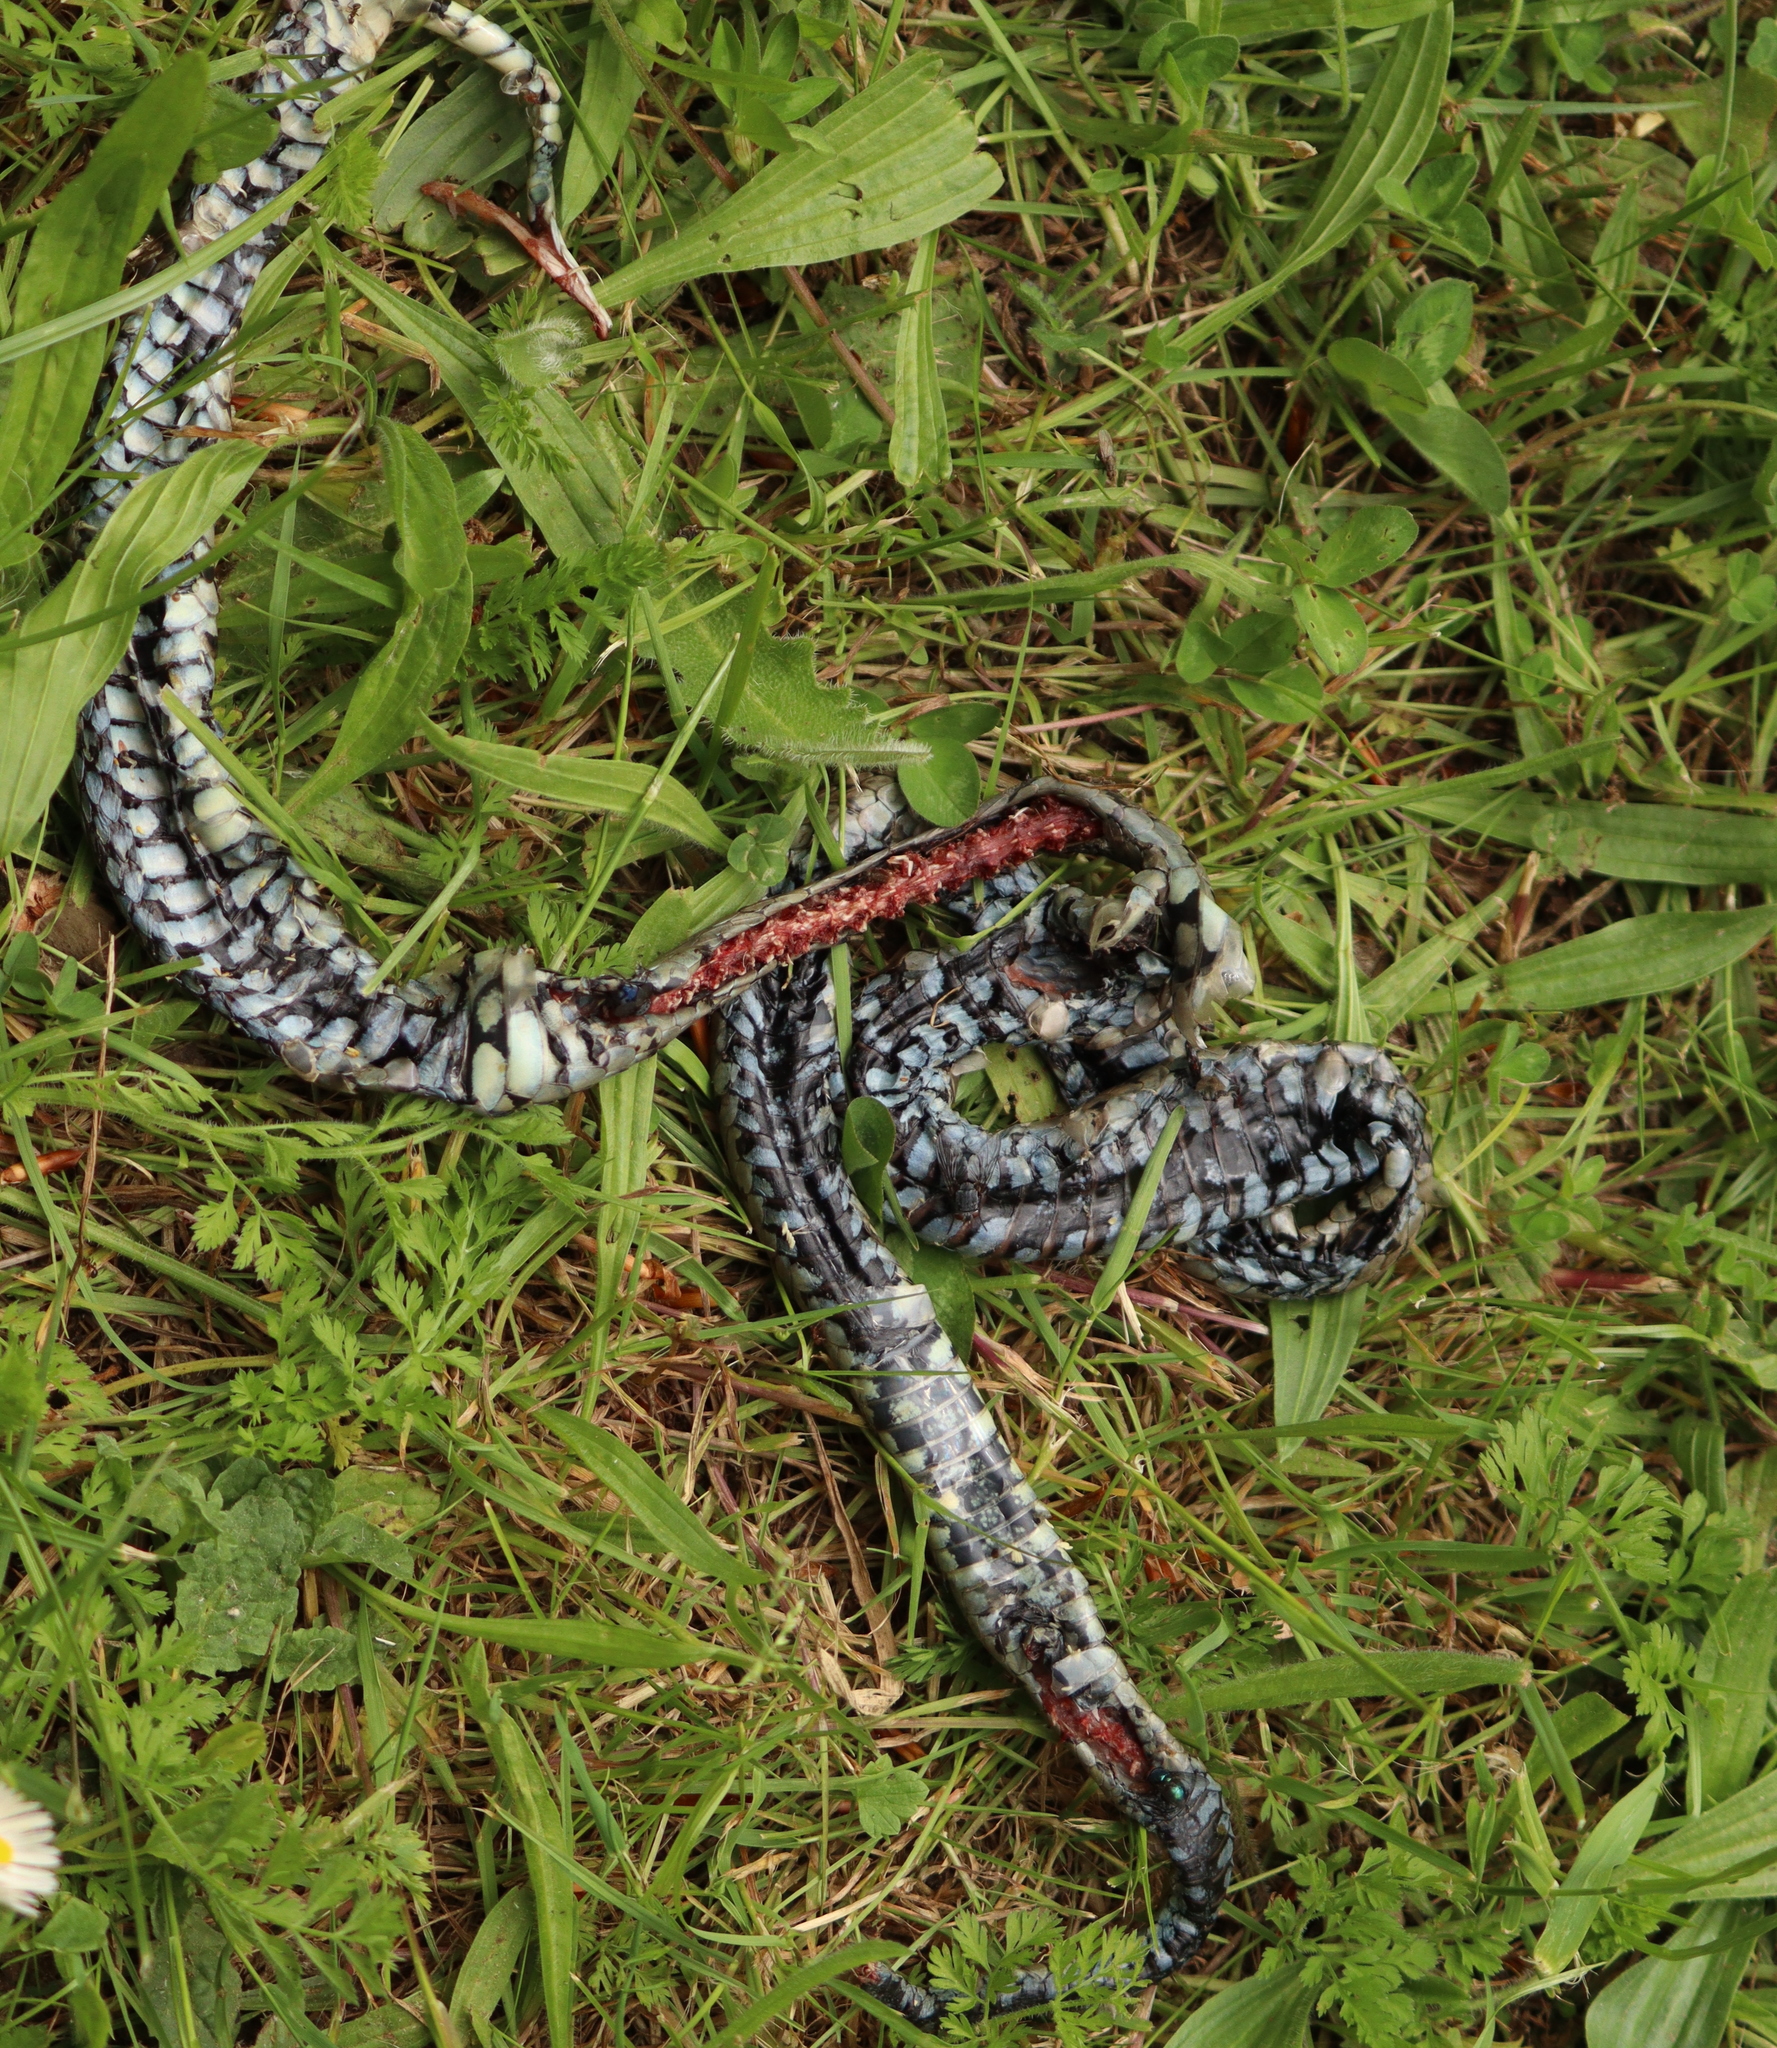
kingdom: Animalia
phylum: Chordata
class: Squamata
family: Colubridae
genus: Natrix
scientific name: Natrix helvetica
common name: Banded grass snake
